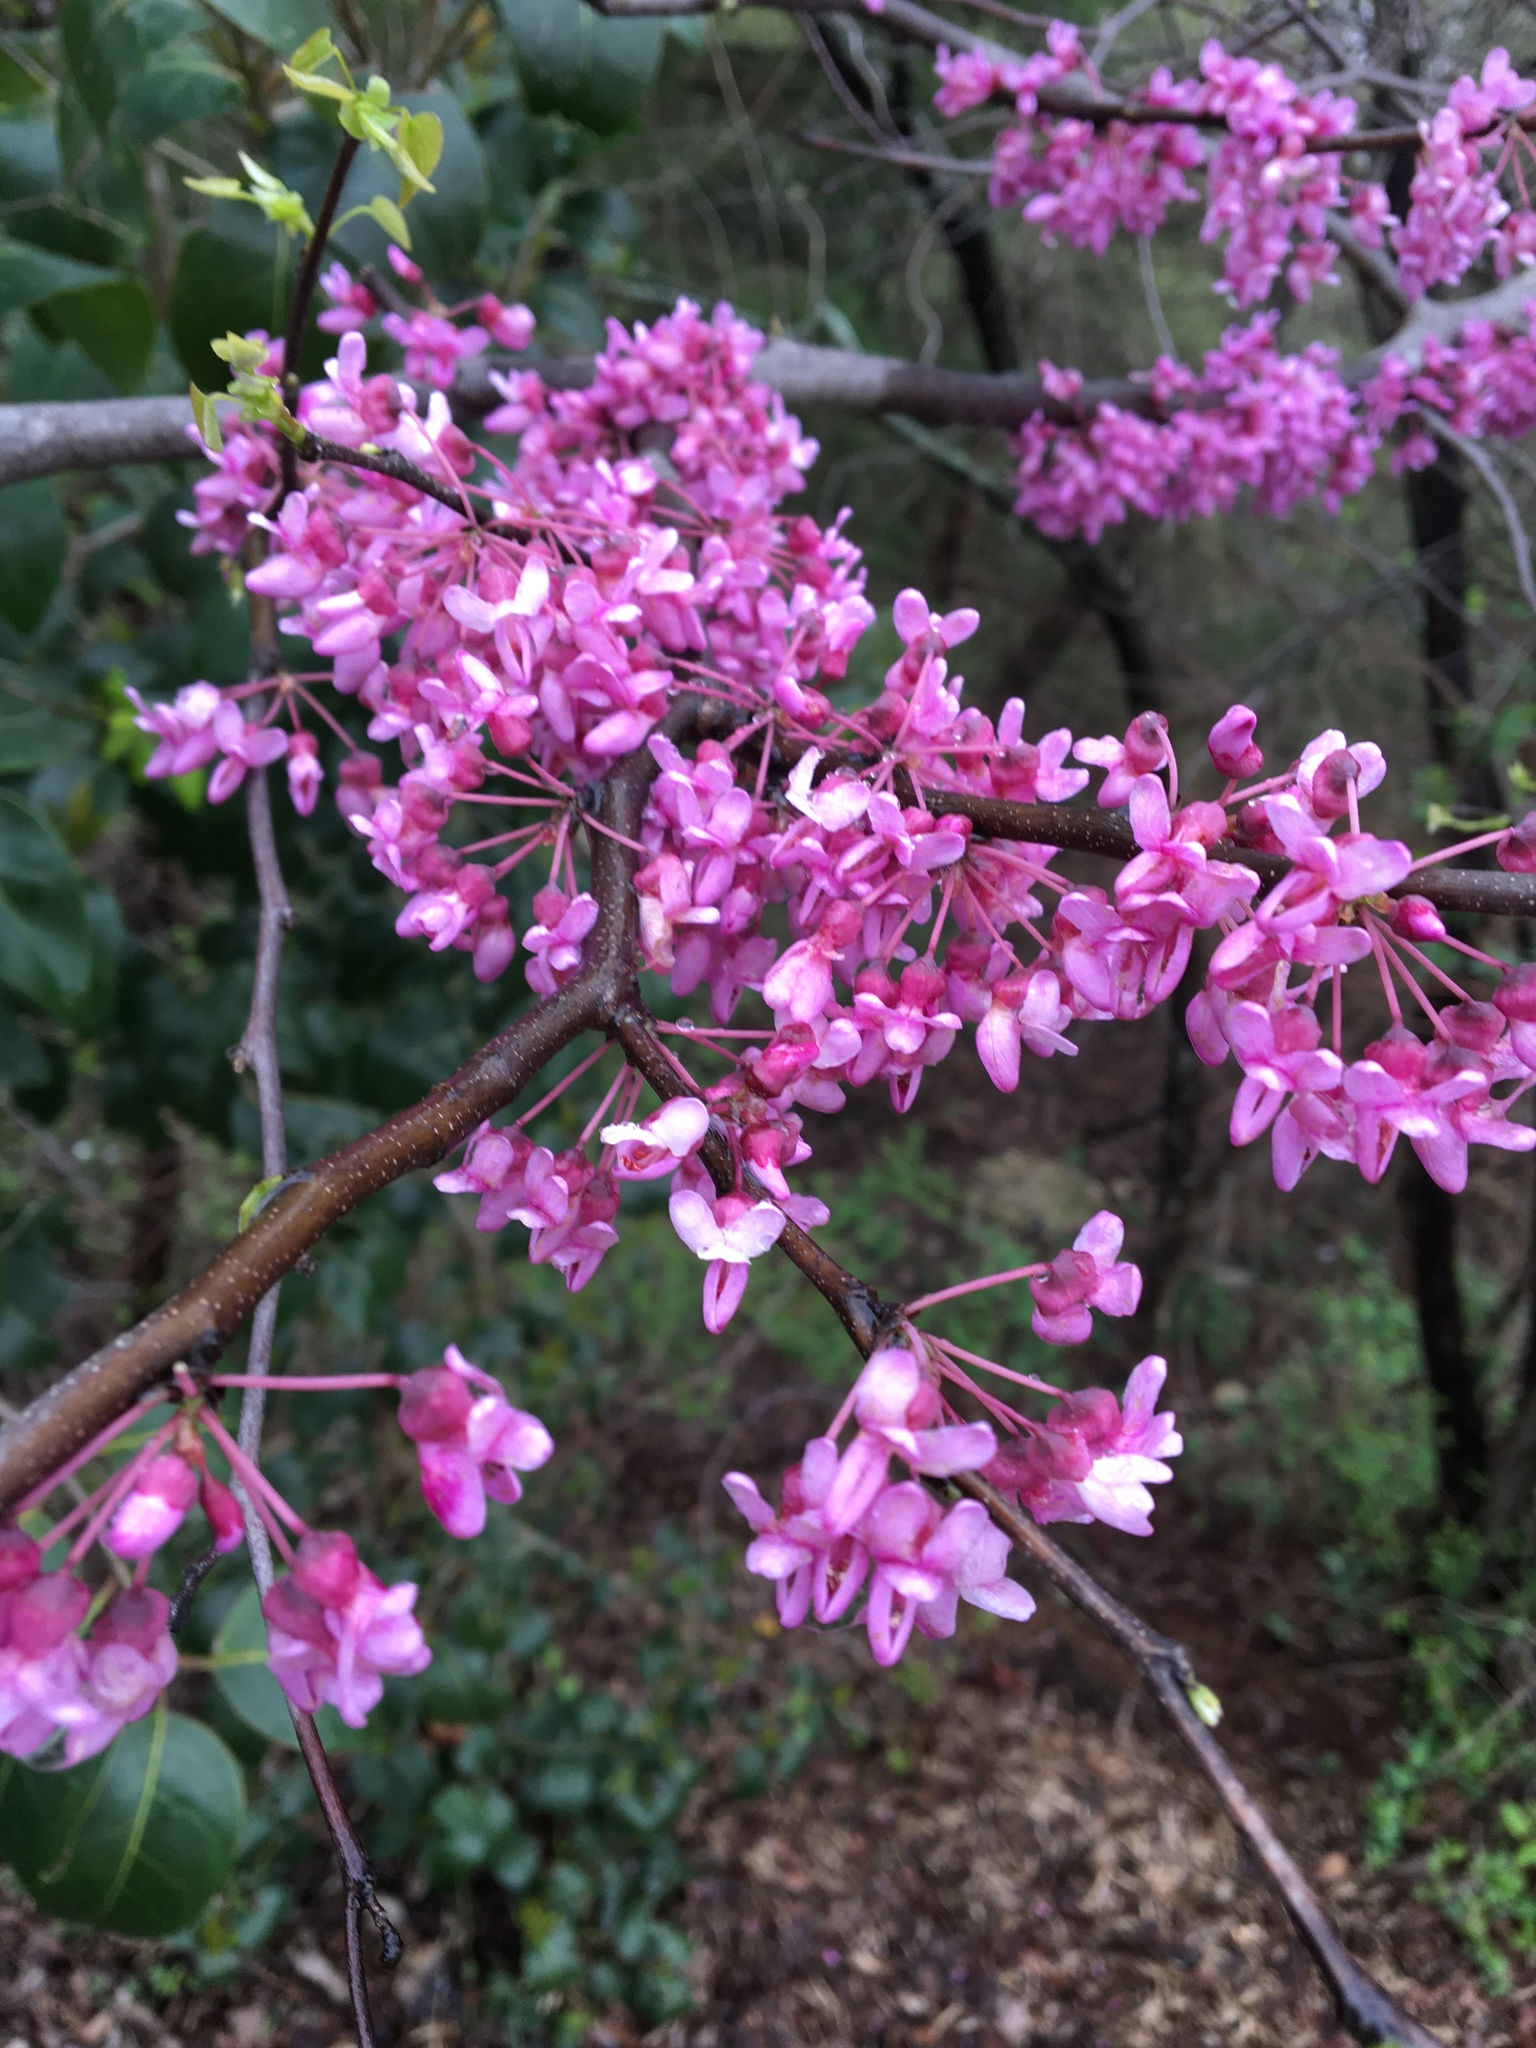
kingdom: Plantae
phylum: Tracheophyta
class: Magnoliopsida
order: Fabales
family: Fabaceae
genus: Cercis
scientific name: Cercis canadensis
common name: Eastern redbud
